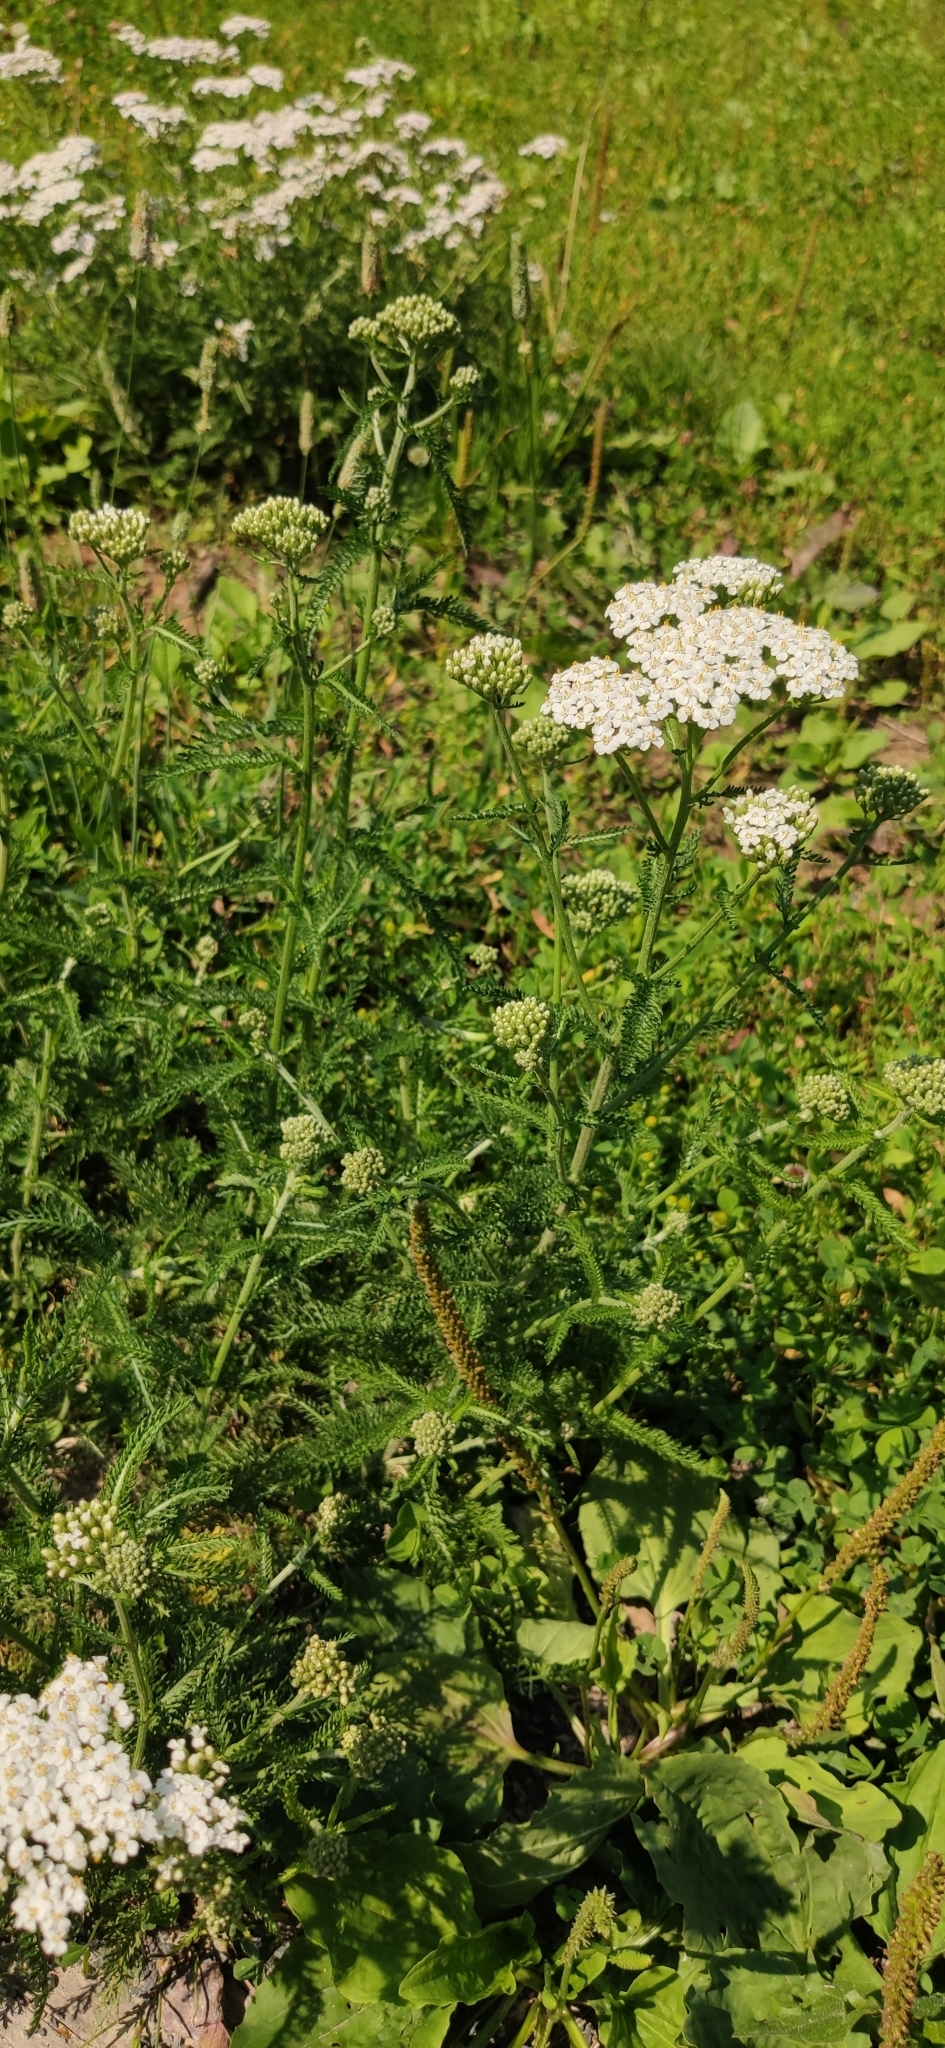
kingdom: Plantae
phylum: Tracheophyta
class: Magnoliopsida
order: Asterales
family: Asteraceae
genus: Achillea
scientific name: Achillea millefolium
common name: Yarrow
